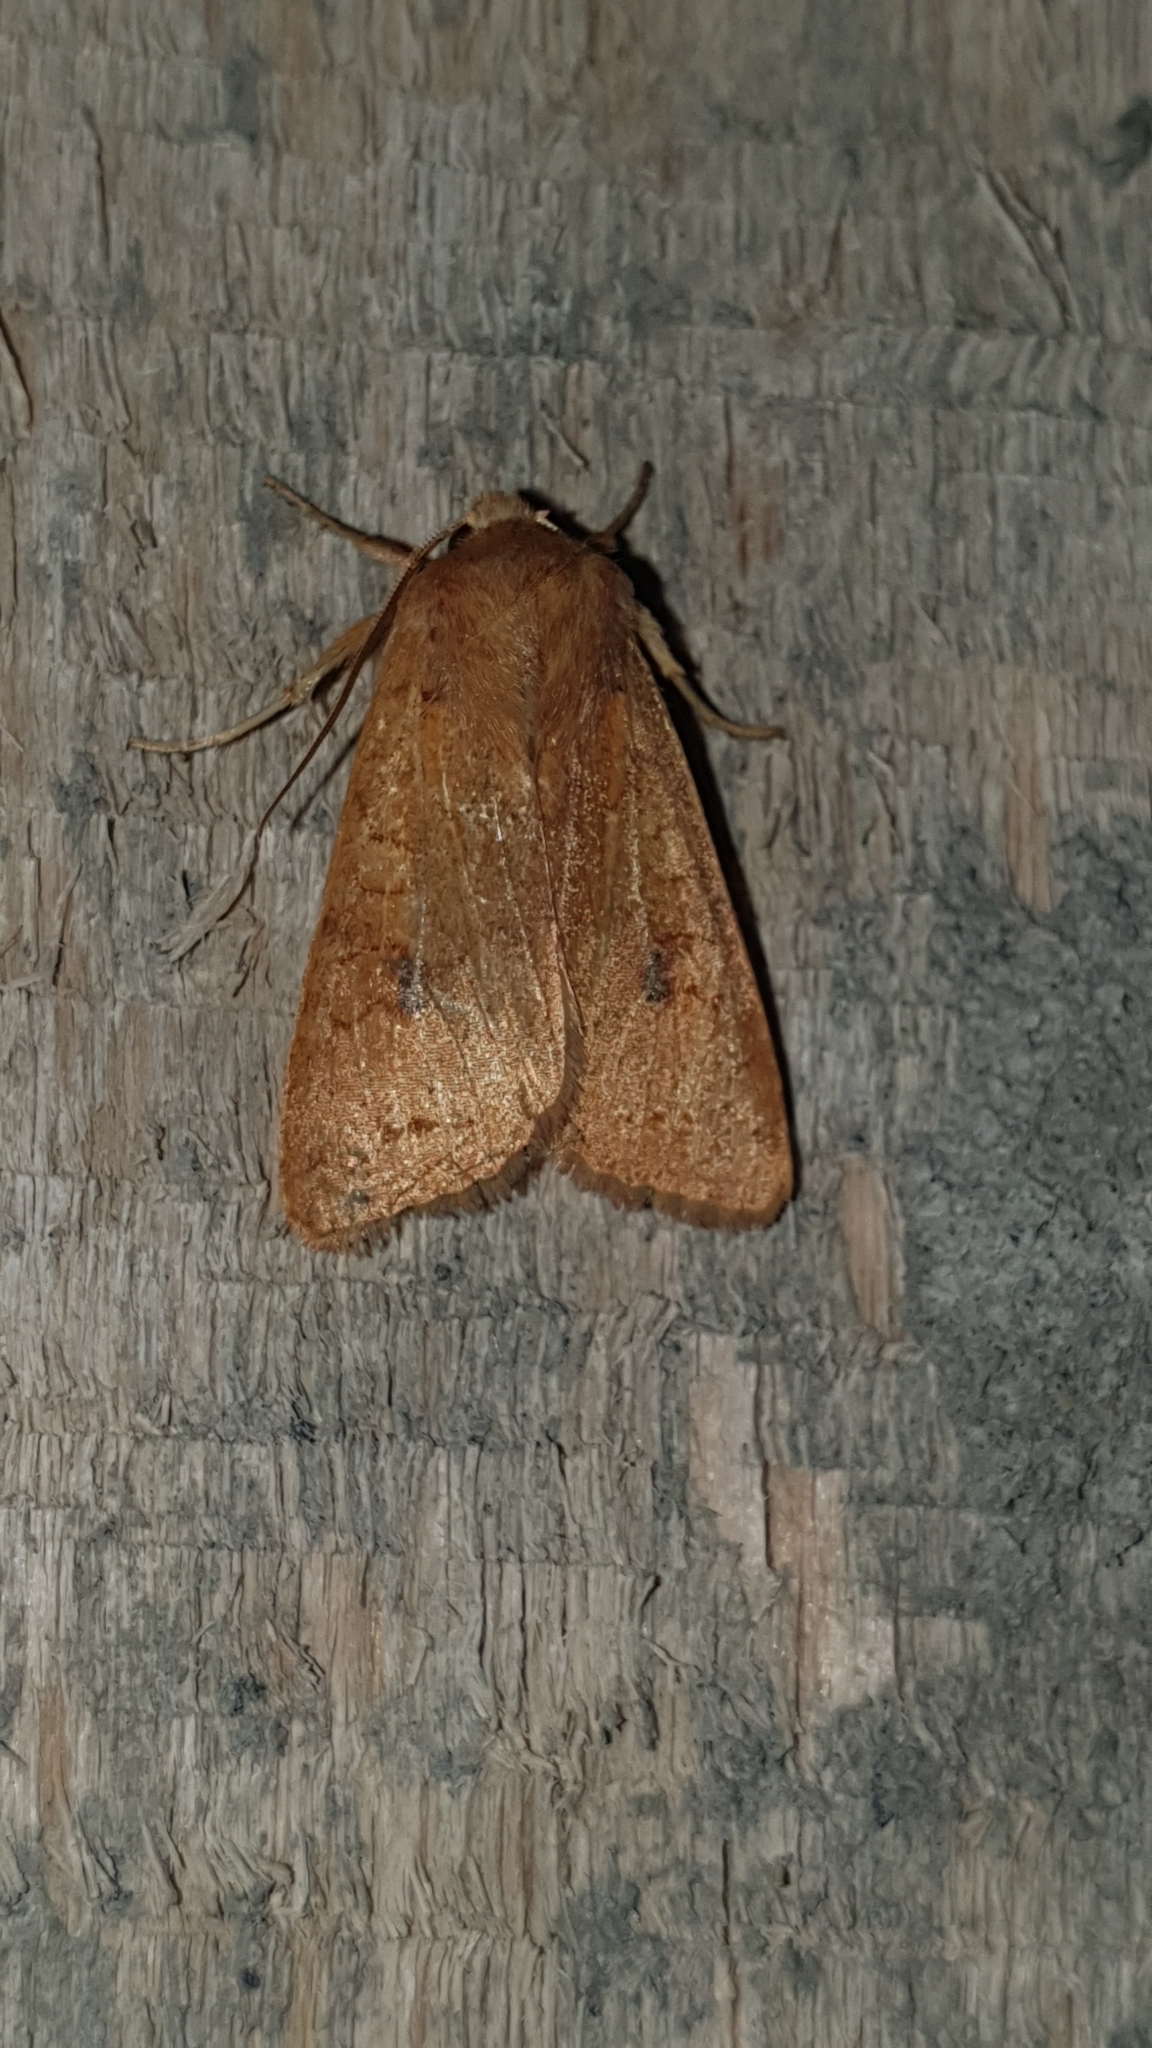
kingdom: Animalia
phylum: Arthropoda
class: Insecta
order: Lepidoptera
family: Noctuidae
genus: Sunira
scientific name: Sunira circellaris
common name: Brick
